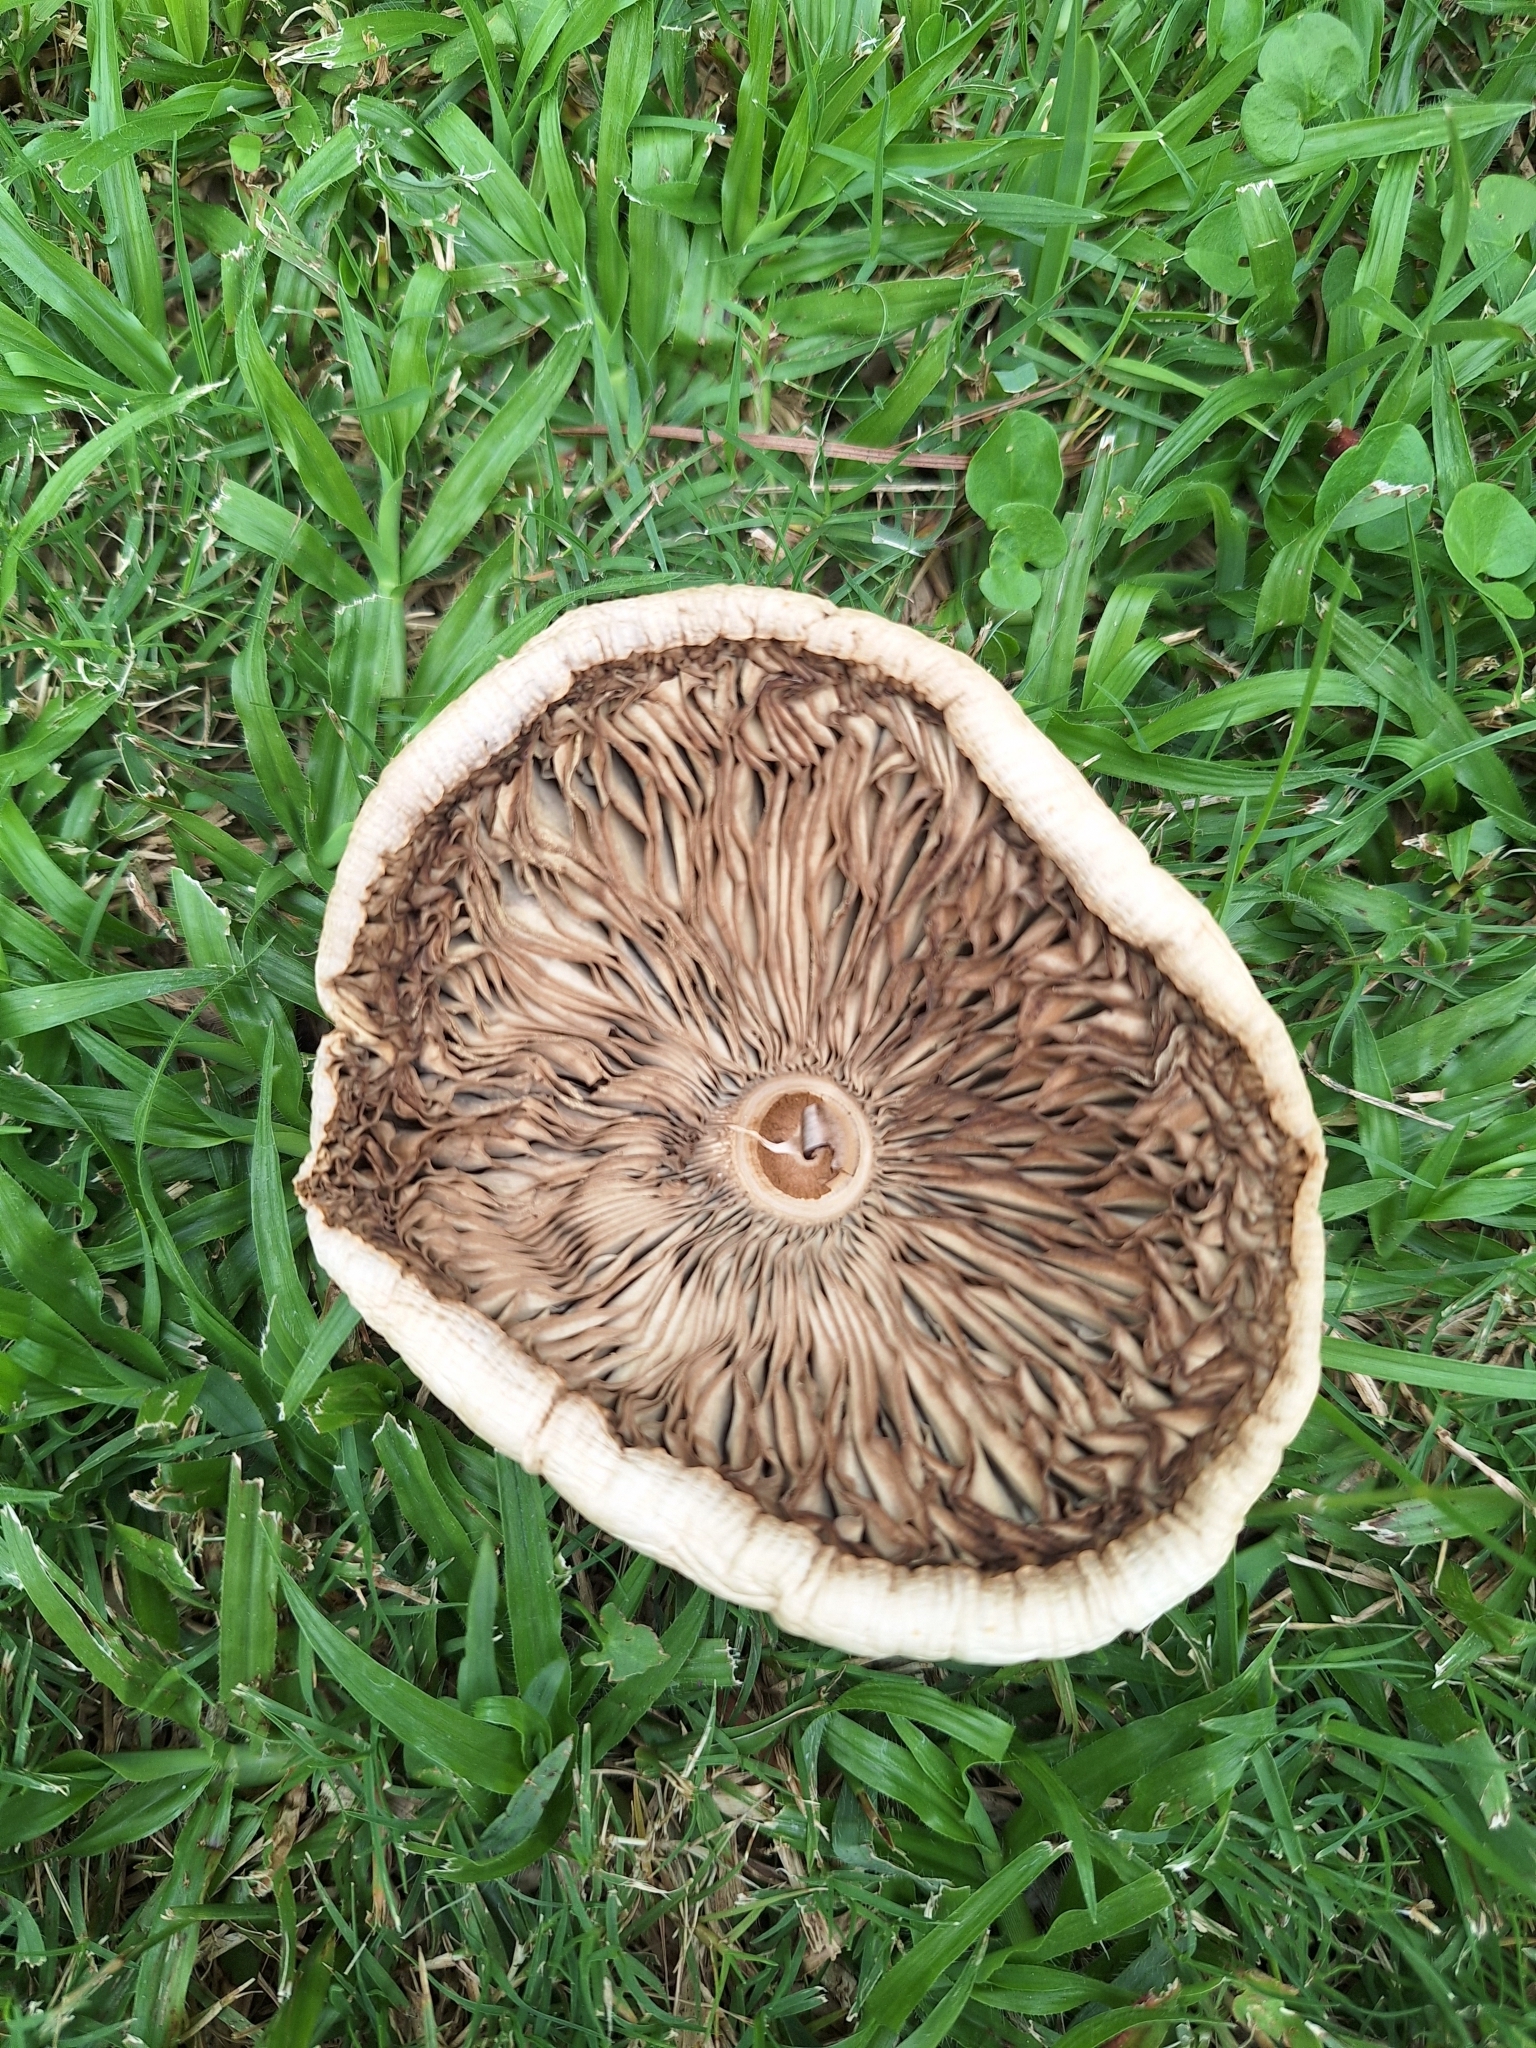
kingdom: Fungi
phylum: Basidiomycota
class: Agaricomycetes
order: Agaricales
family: Agaricaceae
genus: Chlorophyllum
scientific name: Chlorophyllum molybdites
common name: False parasol
